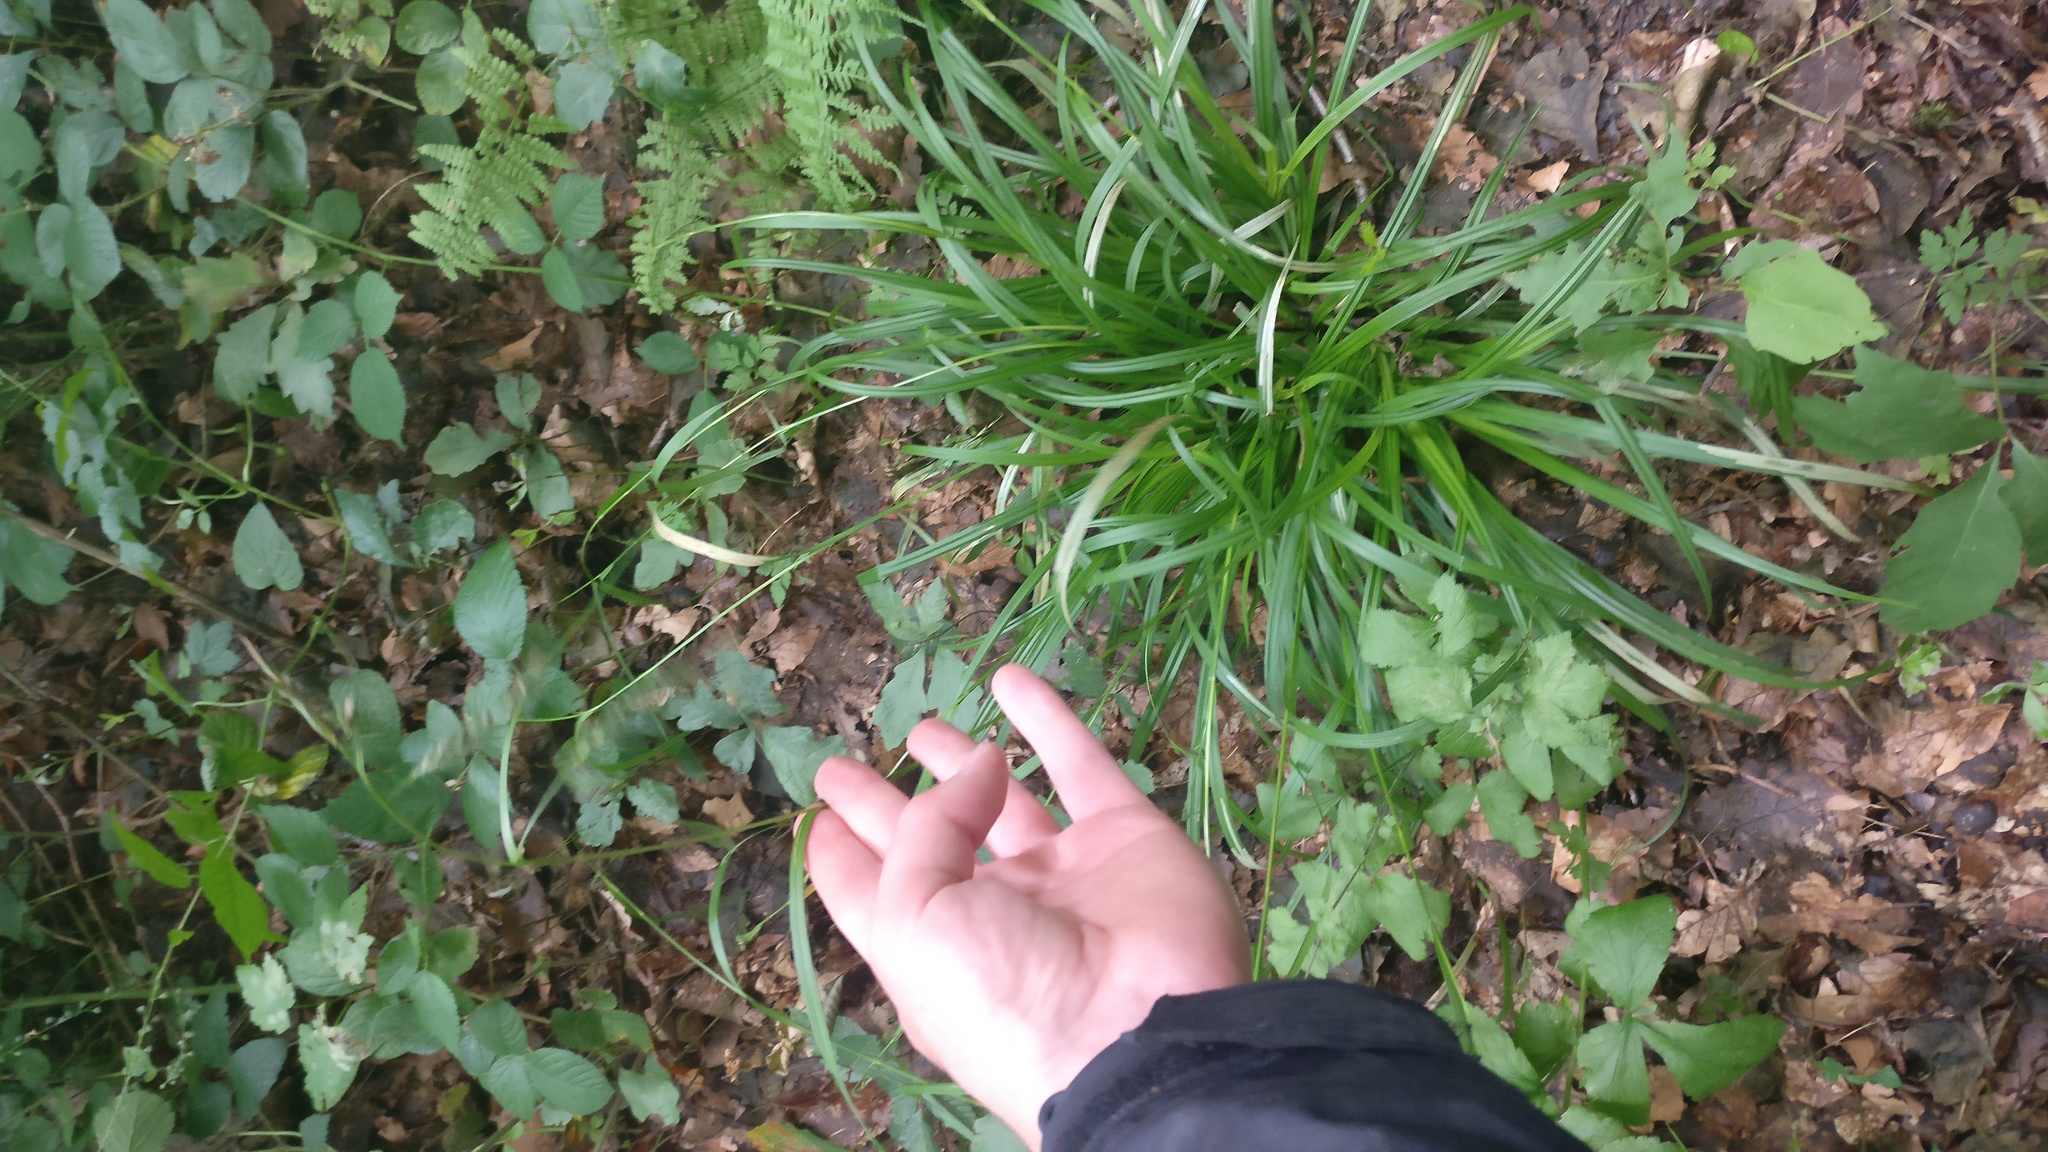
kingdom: Plantae
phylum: Tracheophyta
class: Liliopsida
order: Poales
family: Cyperaceae
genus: Carex
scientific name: Carex sylvatica
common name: Wood-sedge
